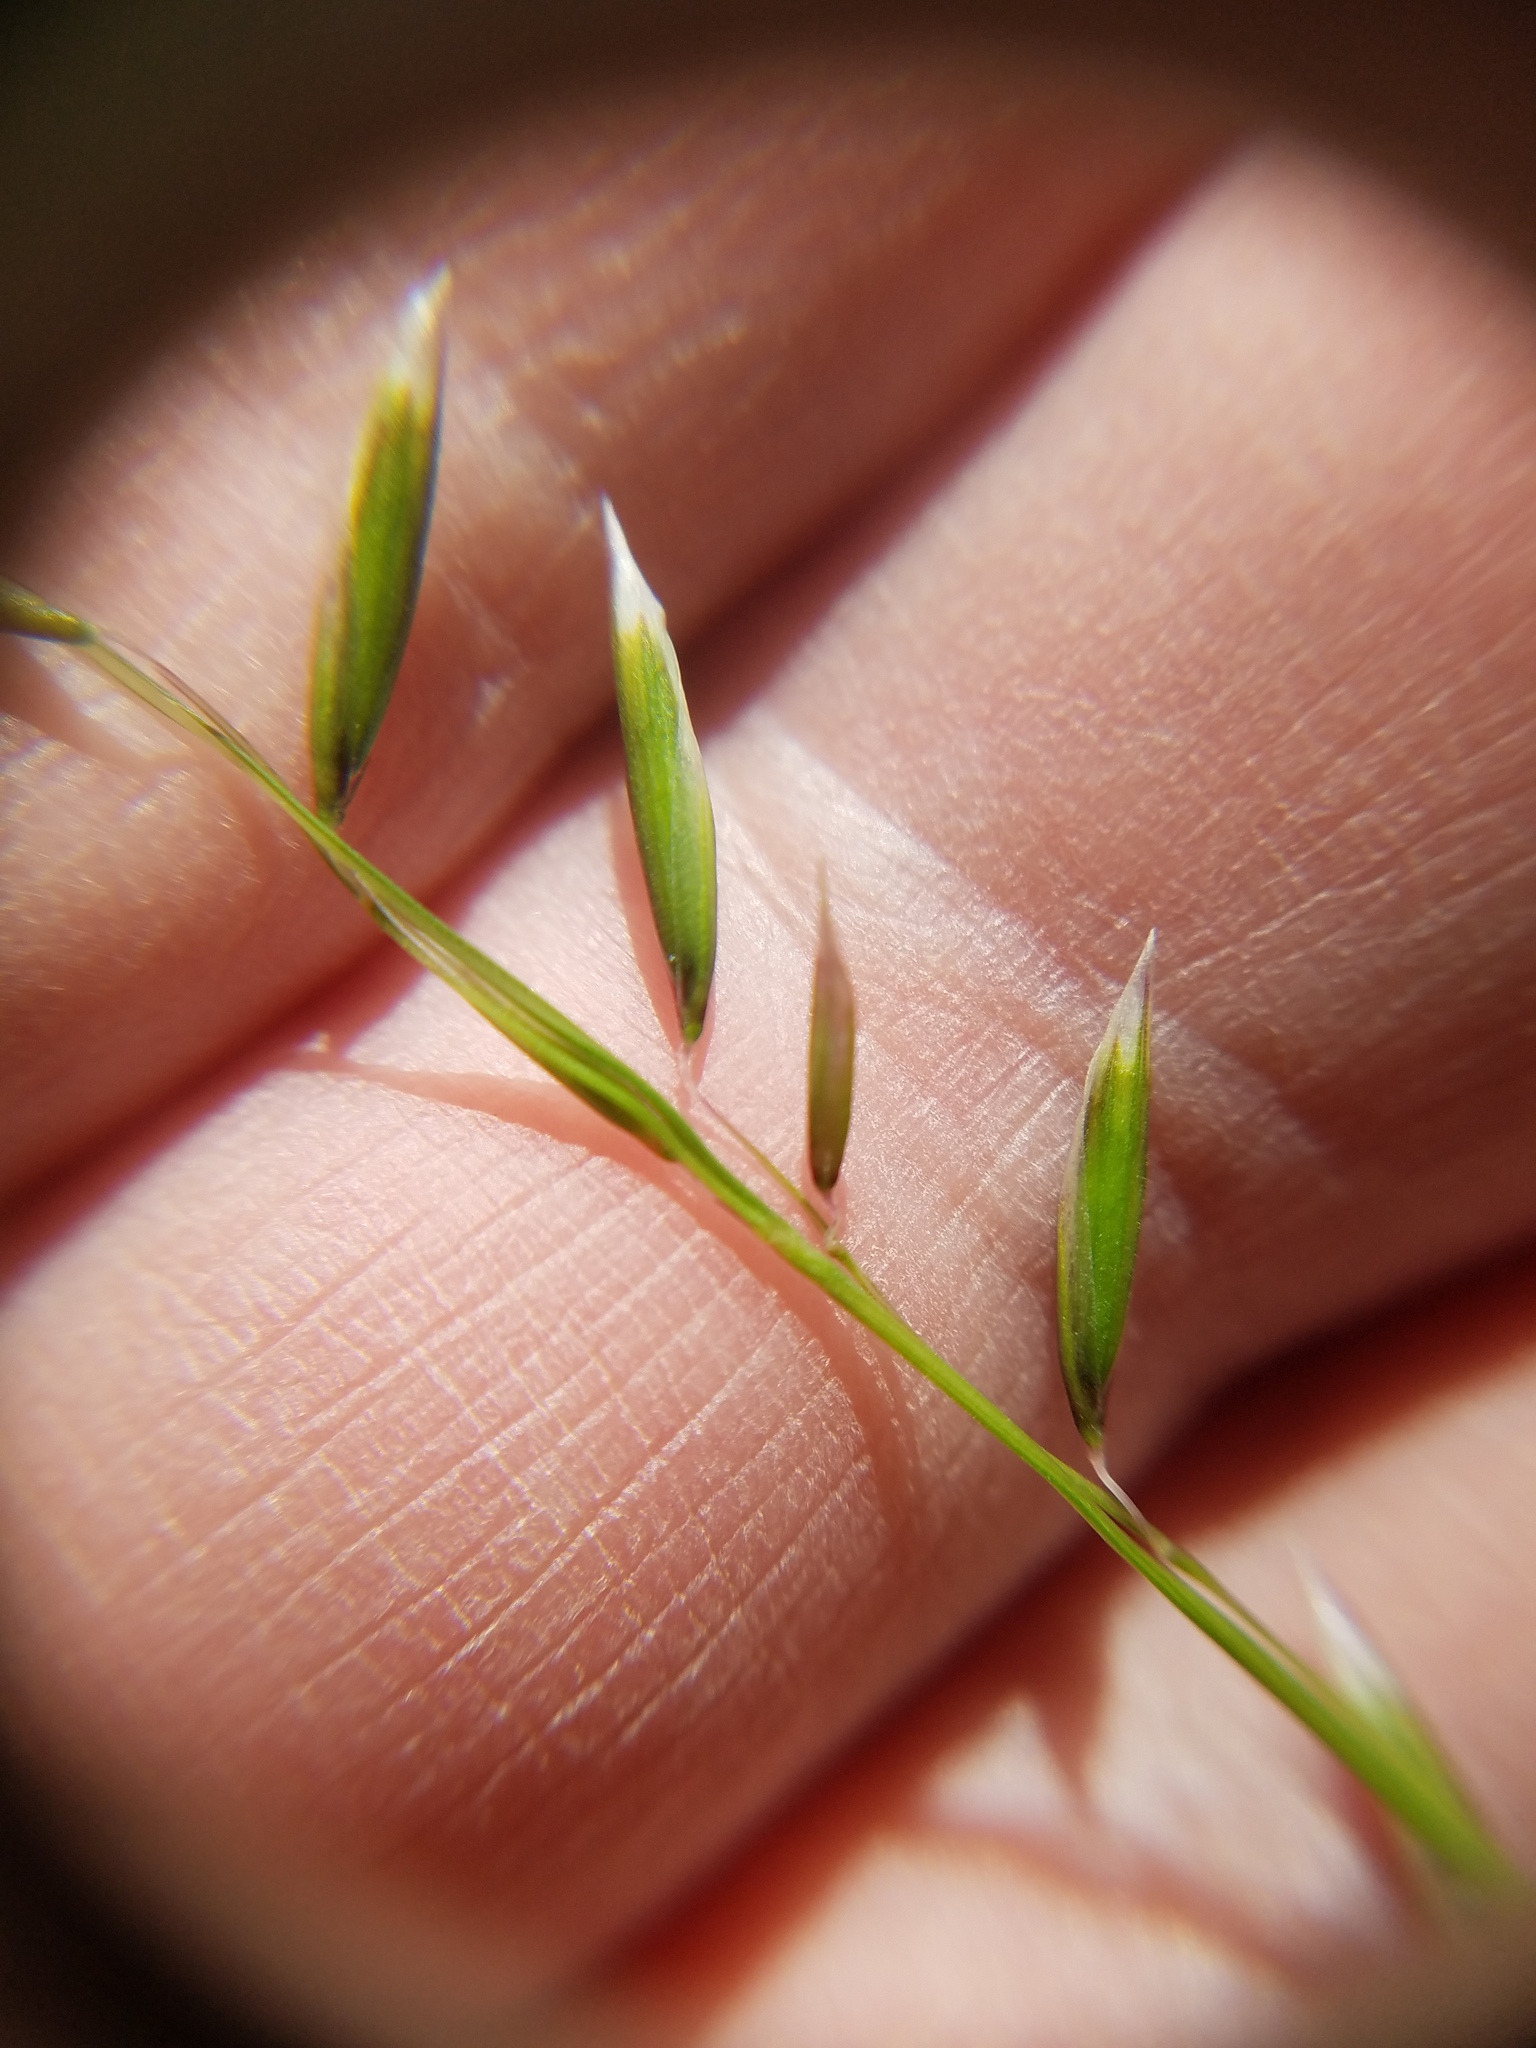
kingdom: Plantae
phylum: Tracheophyta
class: Liliopsida
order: Poales
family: Poaceae
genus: Melica
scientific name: Melica mutica
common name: Two-flower melic
